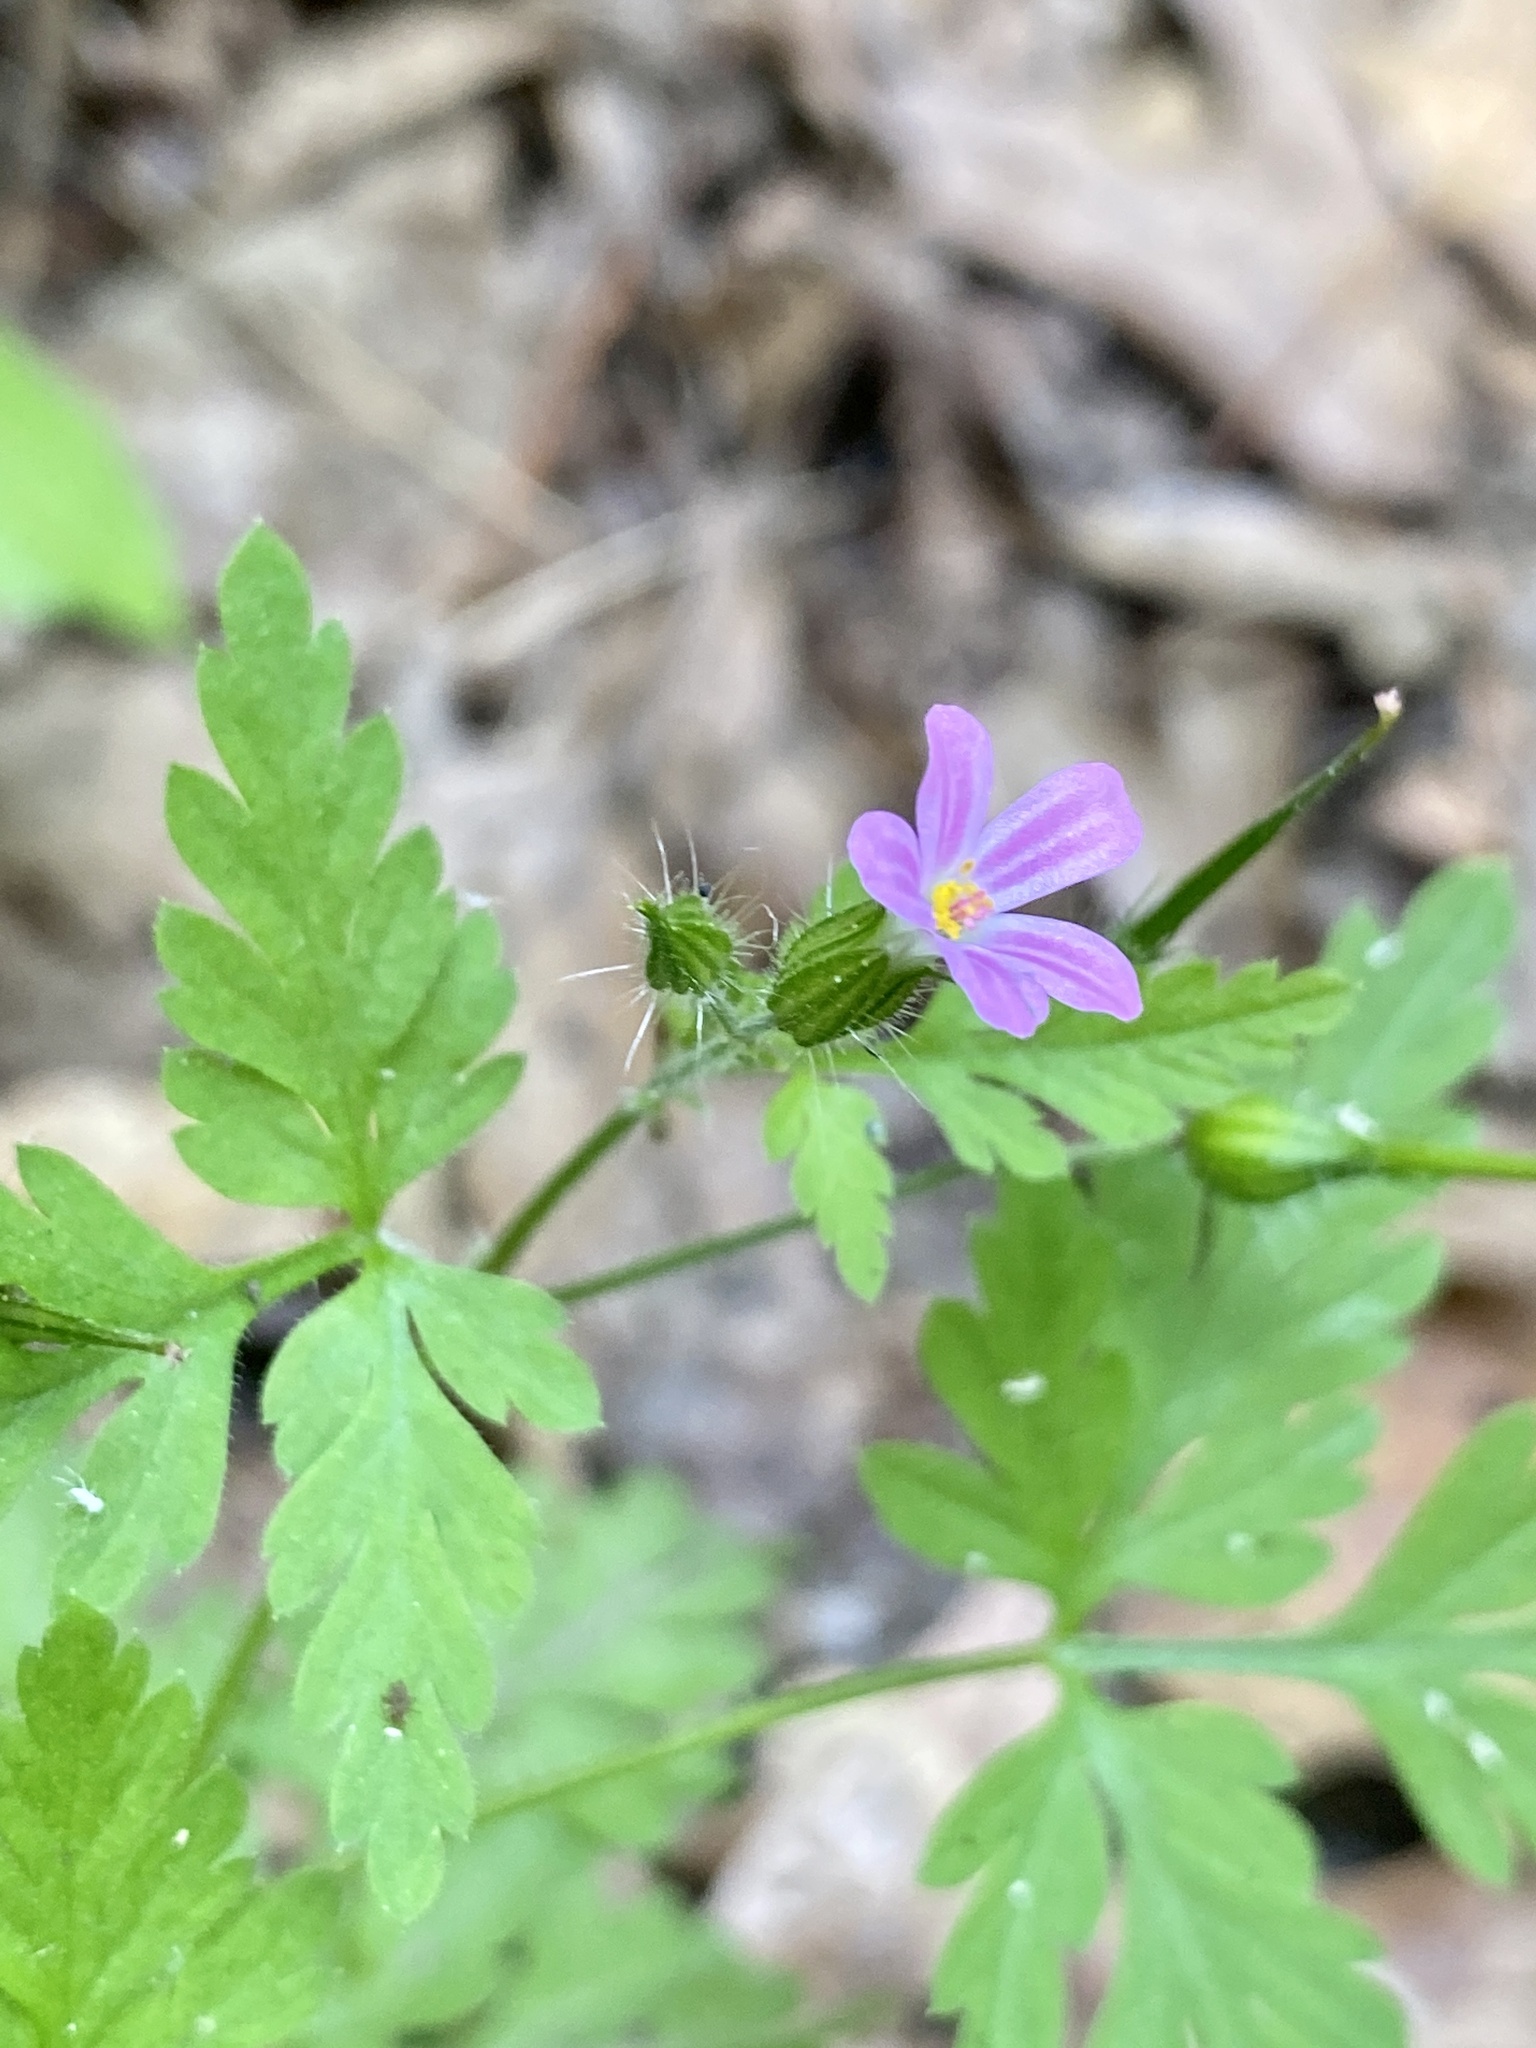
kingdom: Plantae
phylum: Tracheophyta
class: Magnoliopsida
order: Geraniales
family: Geraniaceae
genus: Geranium
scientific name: Geranium robertianum
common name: Herb-robert
